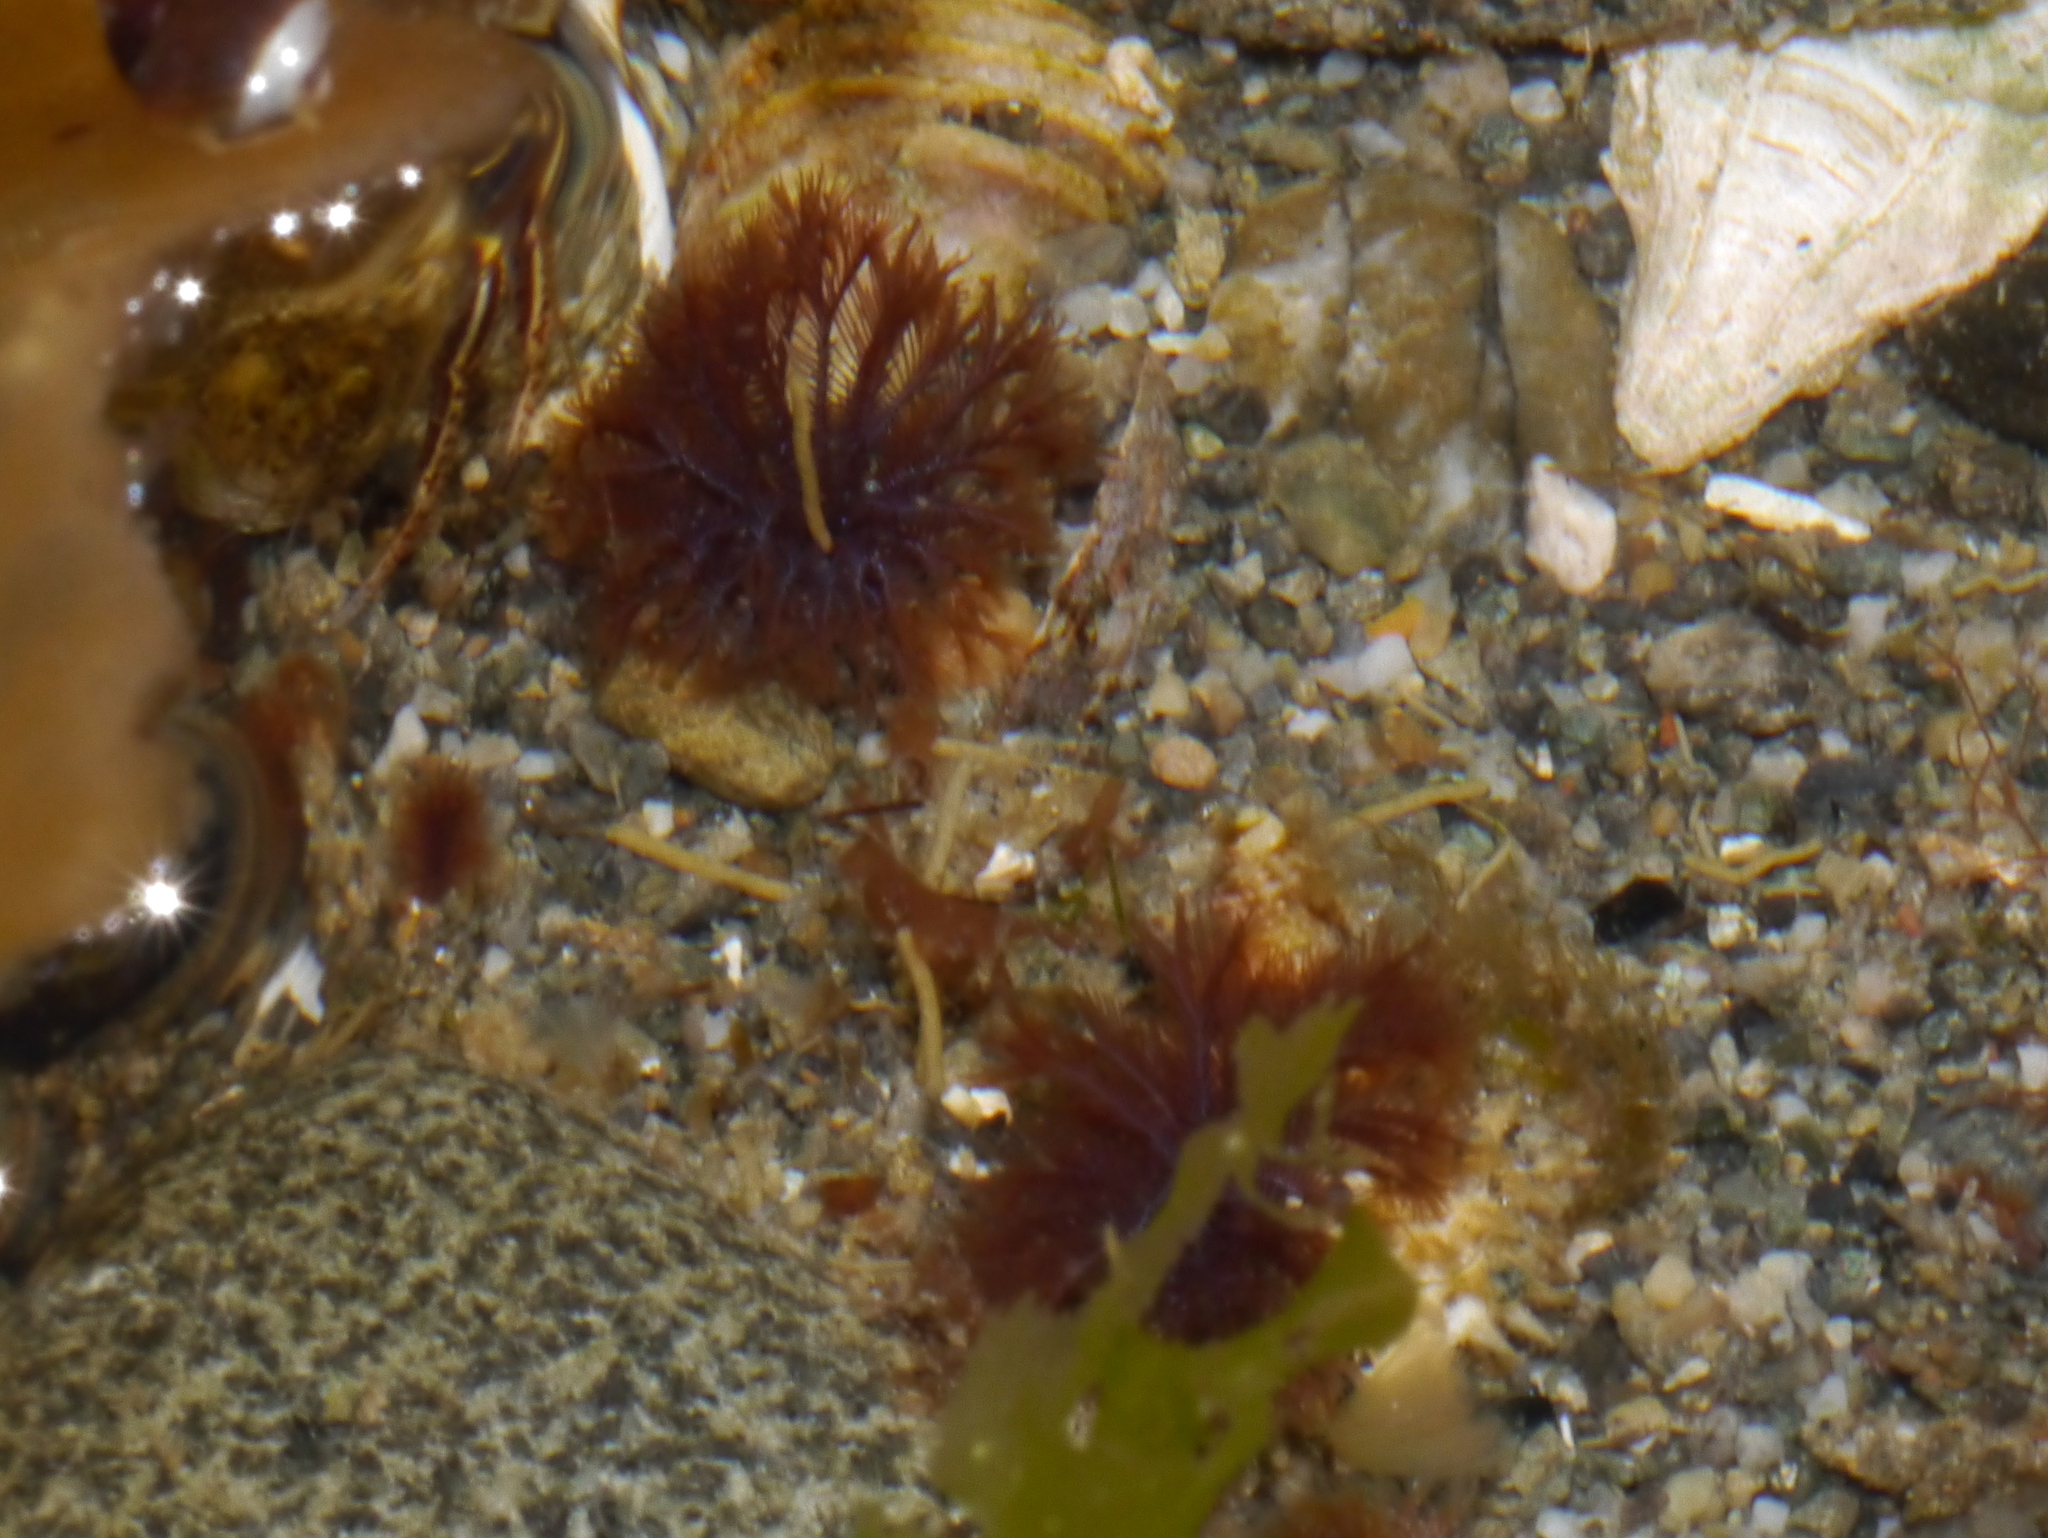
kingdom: Animalia
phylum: Annelida
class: Polychaeta
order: Sabellida
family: Sabellidae
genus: Schizobranchia
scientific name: Schizobranchia insignis
